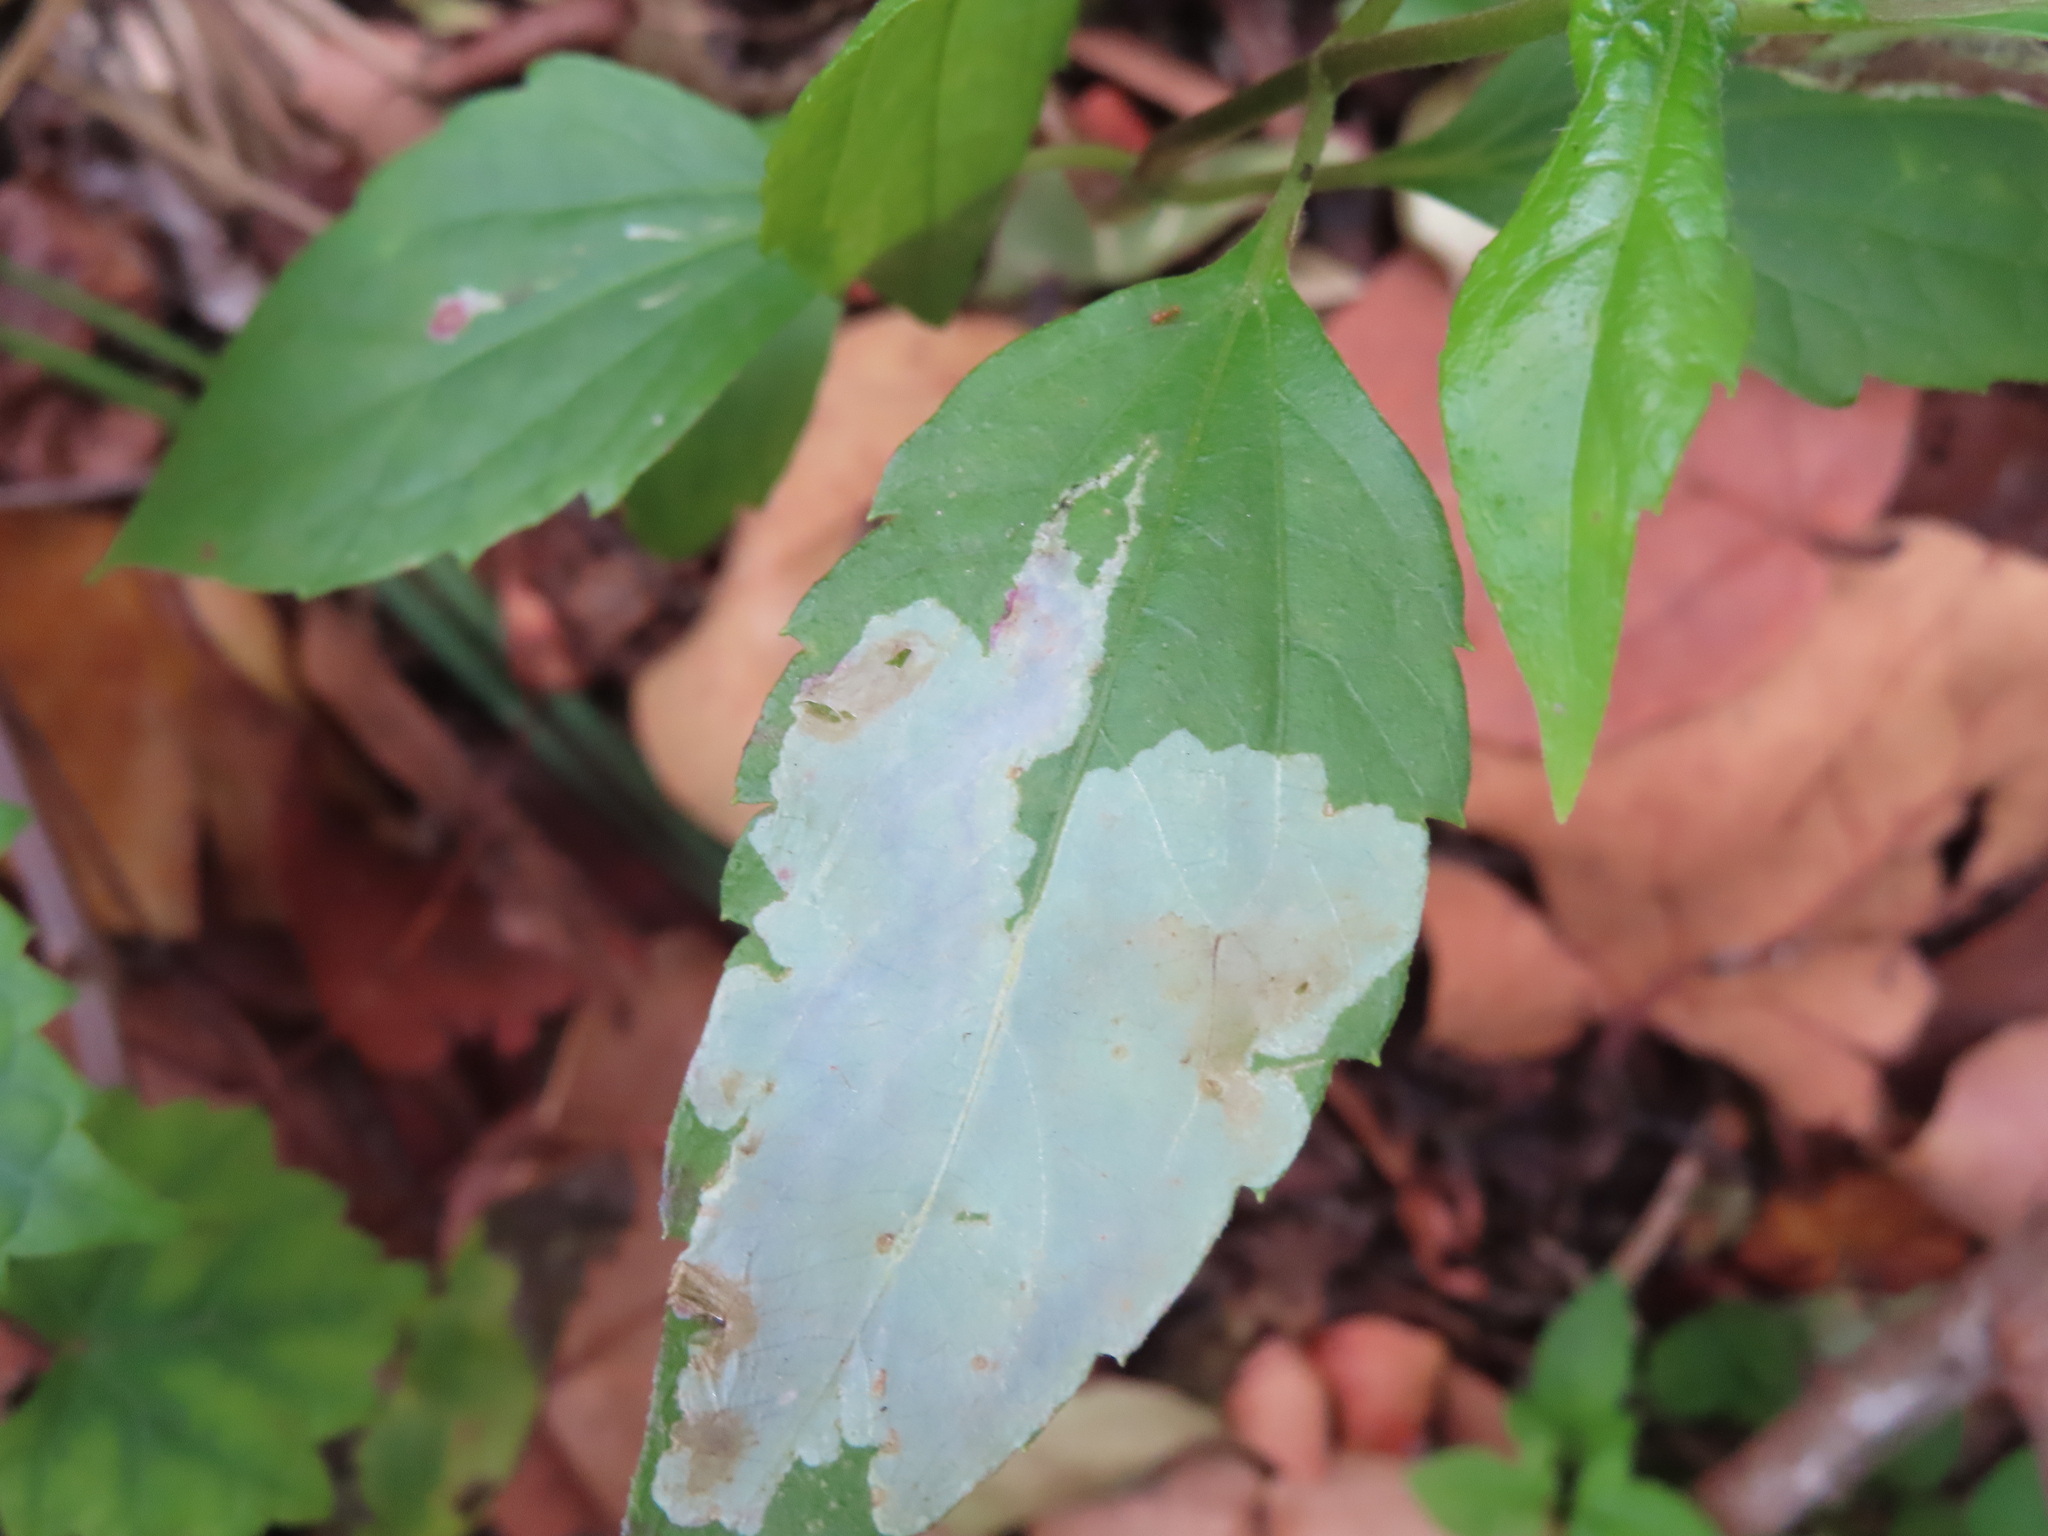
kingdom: Animalia
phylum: Arthropoda
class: Insecta
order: Diptera
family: Agromyzidae
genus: Calycomyza
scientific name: Calycomyza eupatorivora
